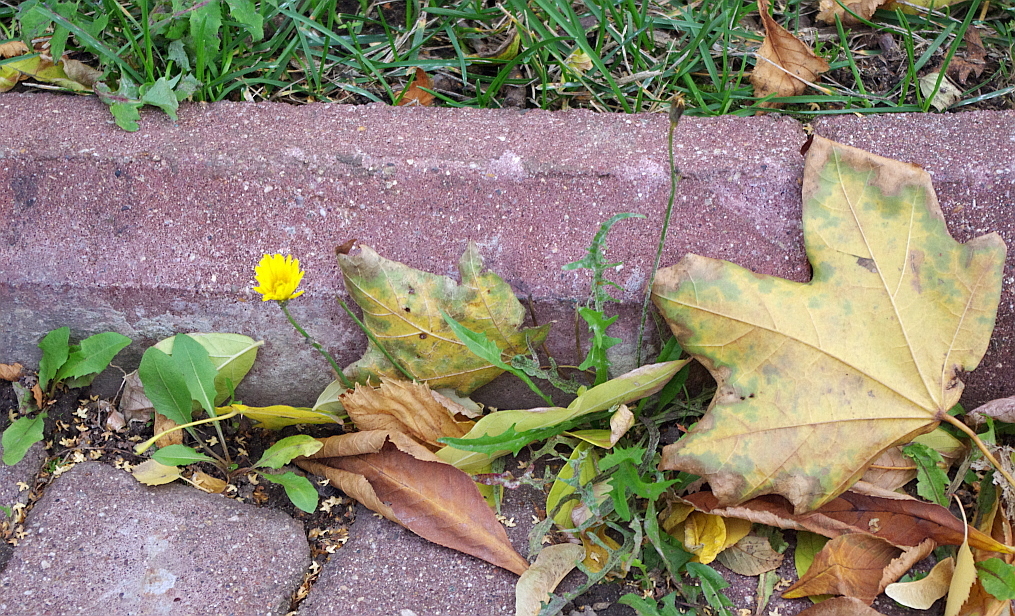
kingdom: Plantae
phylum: Tracheophyta
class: Magnoliopsida
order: Asterales
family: Asteraceae
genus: Scorzoneroides
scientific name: Scorzoneroides autumnalis
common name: Autumn hawkbit
